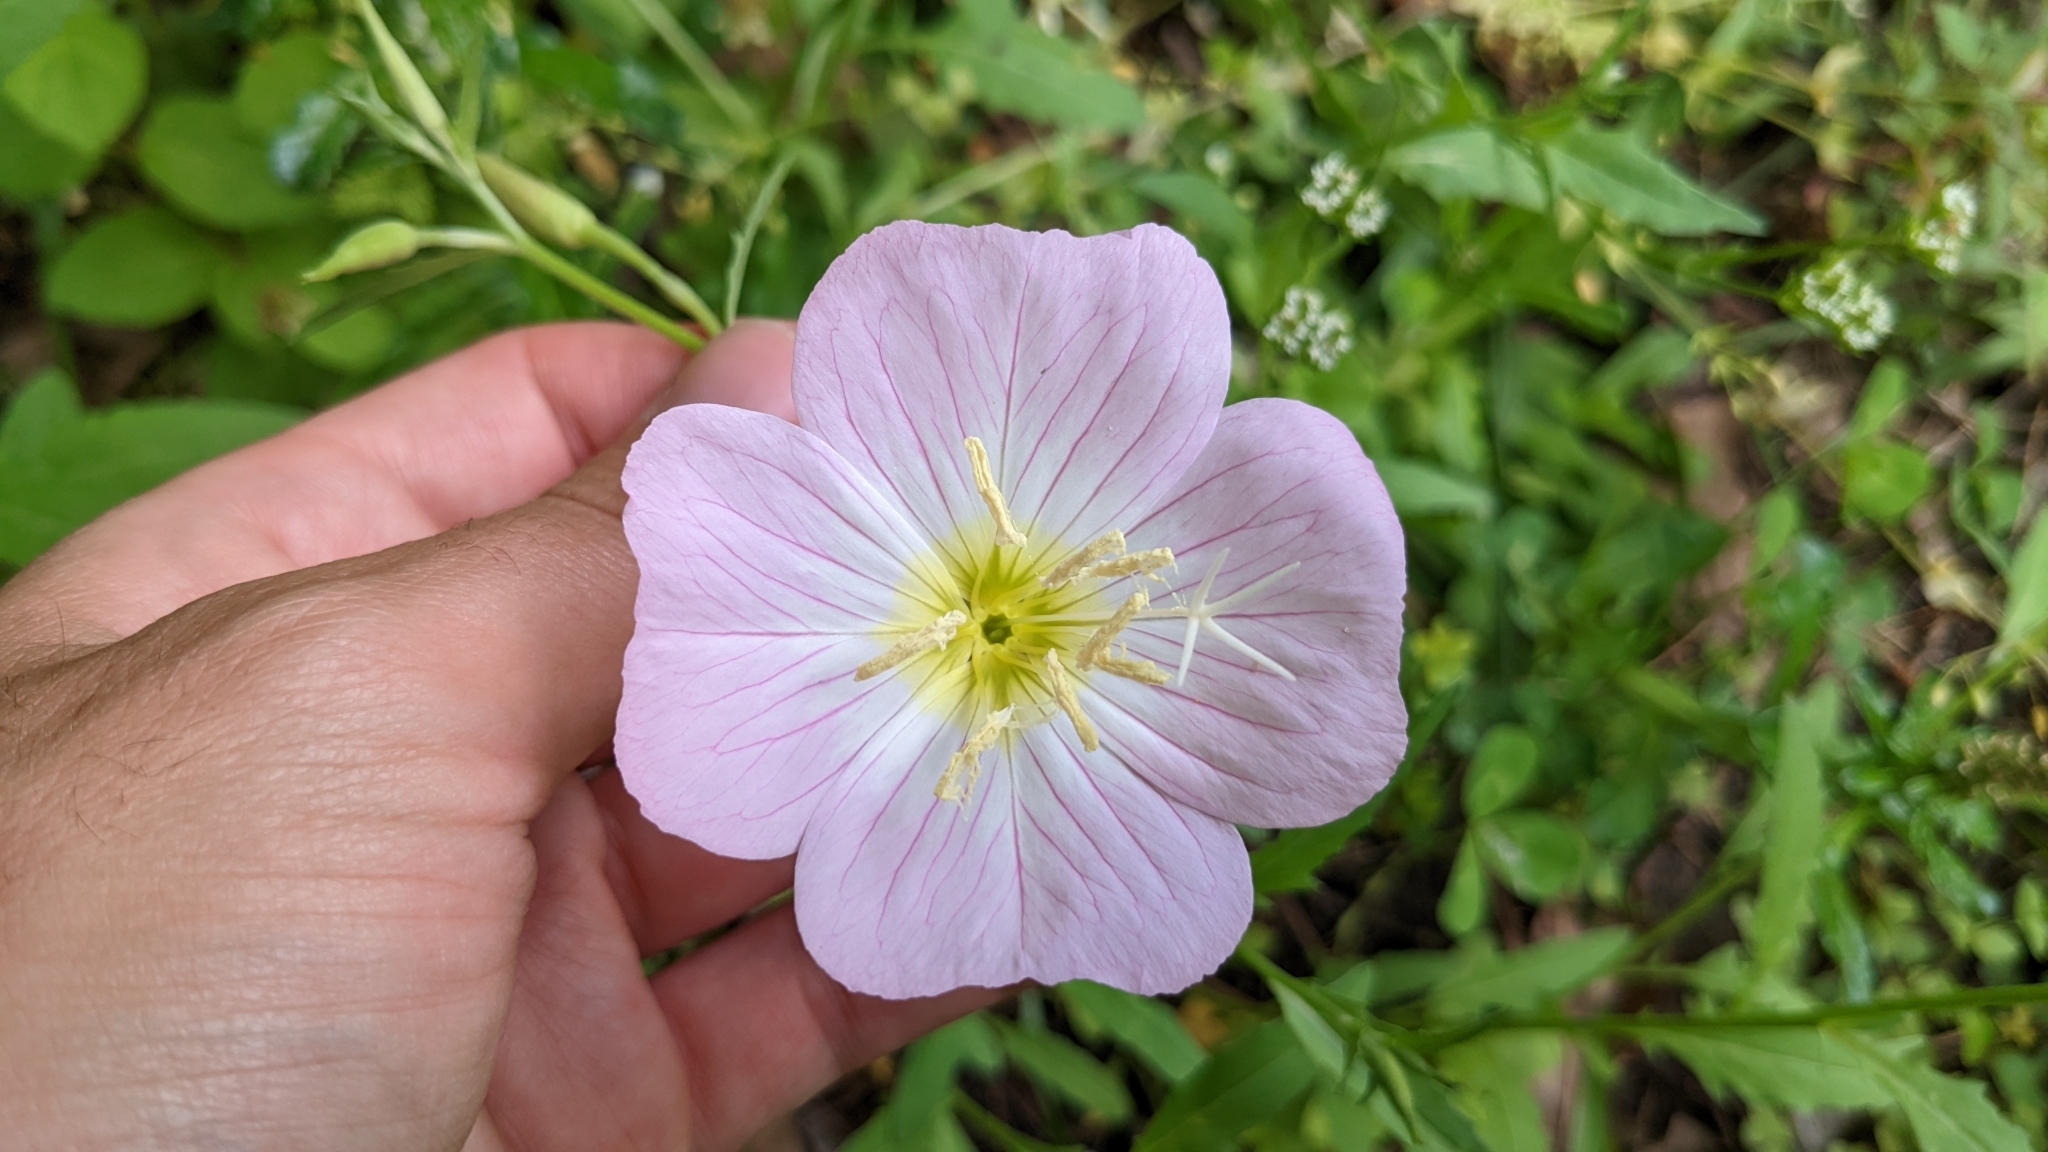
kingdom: Plantae
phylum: Tracheophyta
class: Magnoliopsida
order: Myrtales
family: Onagraceae
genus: Oenothera
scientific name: Oenothera speciosa
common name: White evening-primrose
